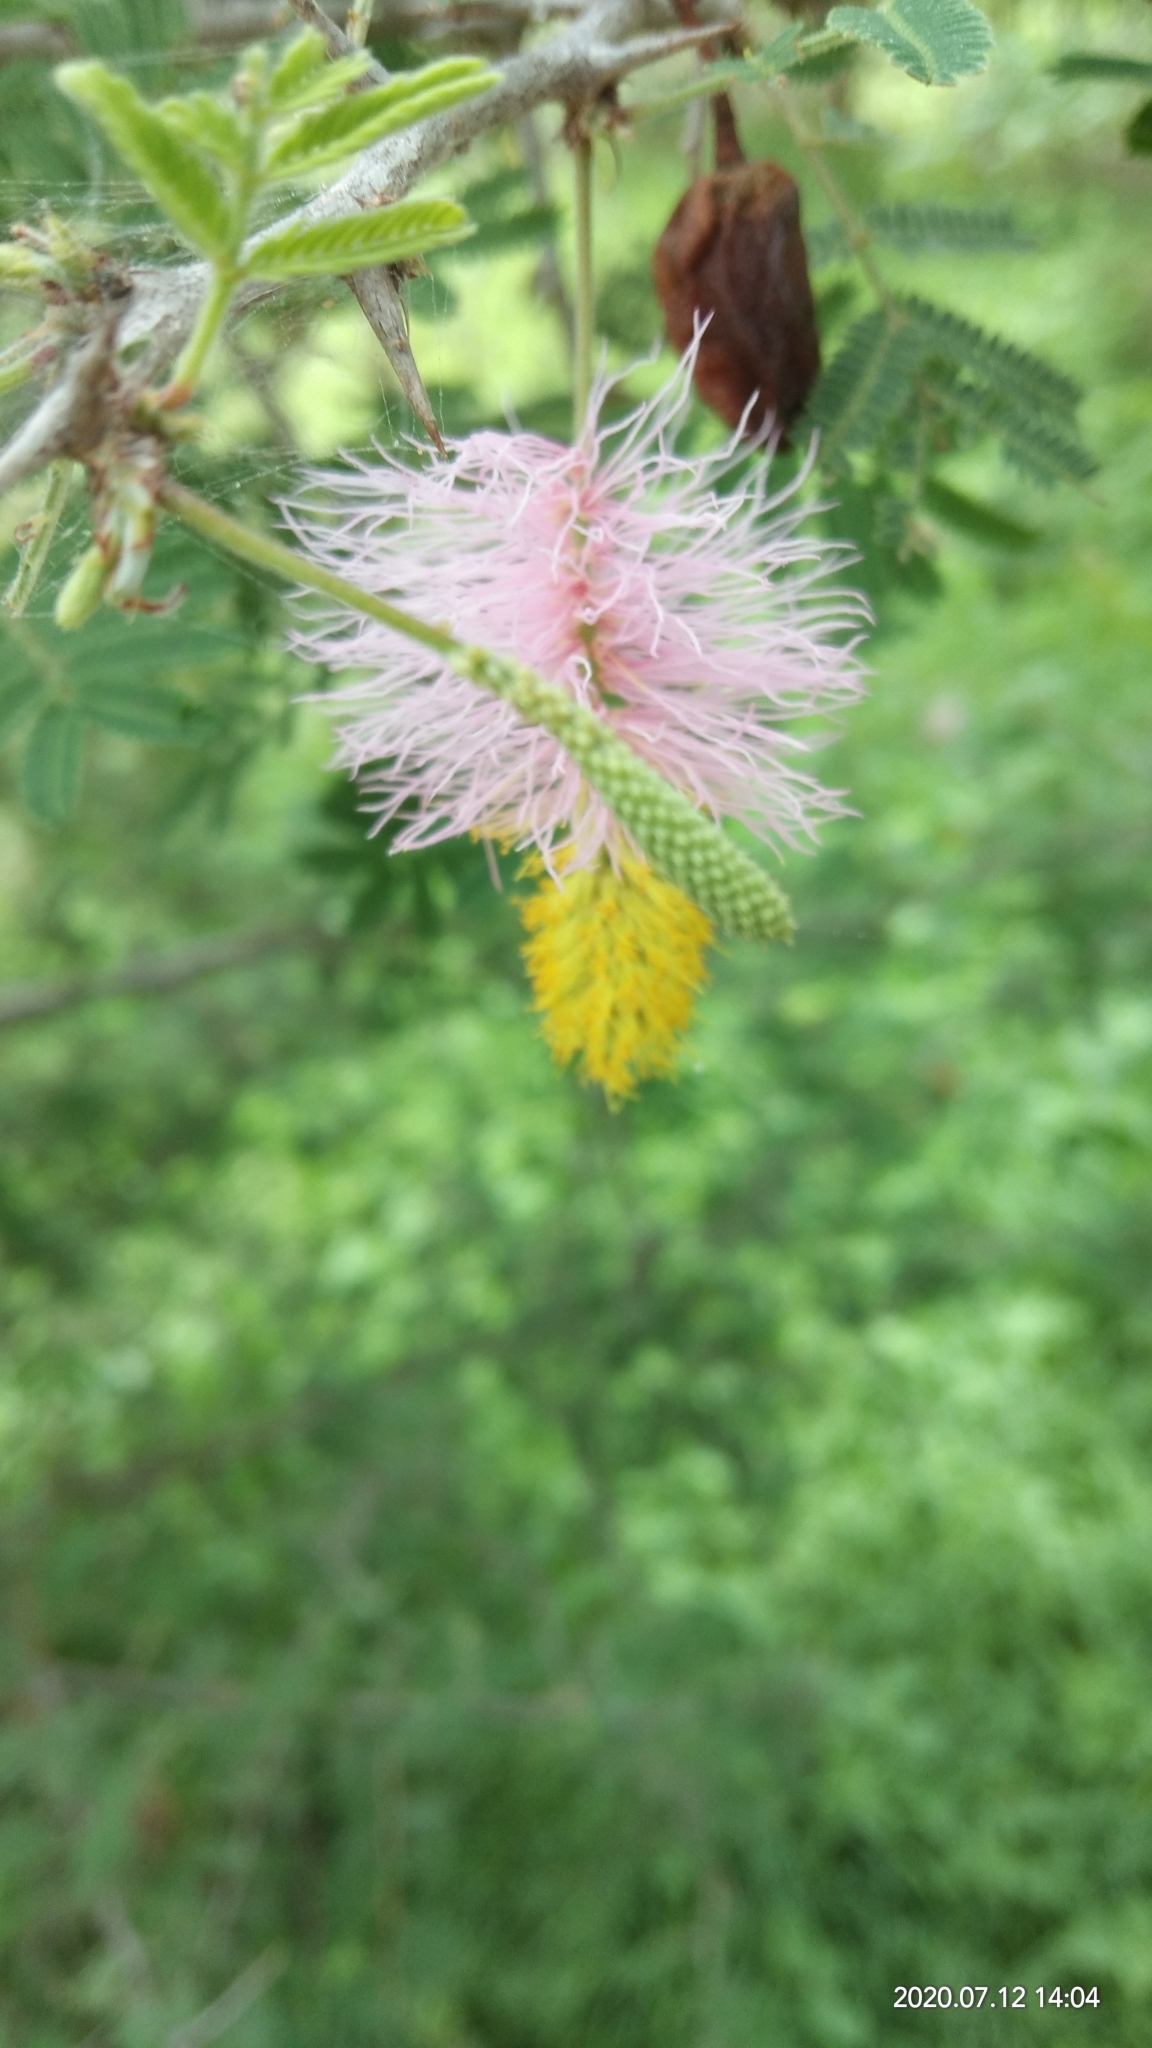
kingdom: Plantae
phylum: Tracheophyta
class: Magnoliopsida
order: Fabales
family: Fabaceae
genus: Dichrostachys
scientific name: Dichrostachys cinerea
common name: Sicklebush
